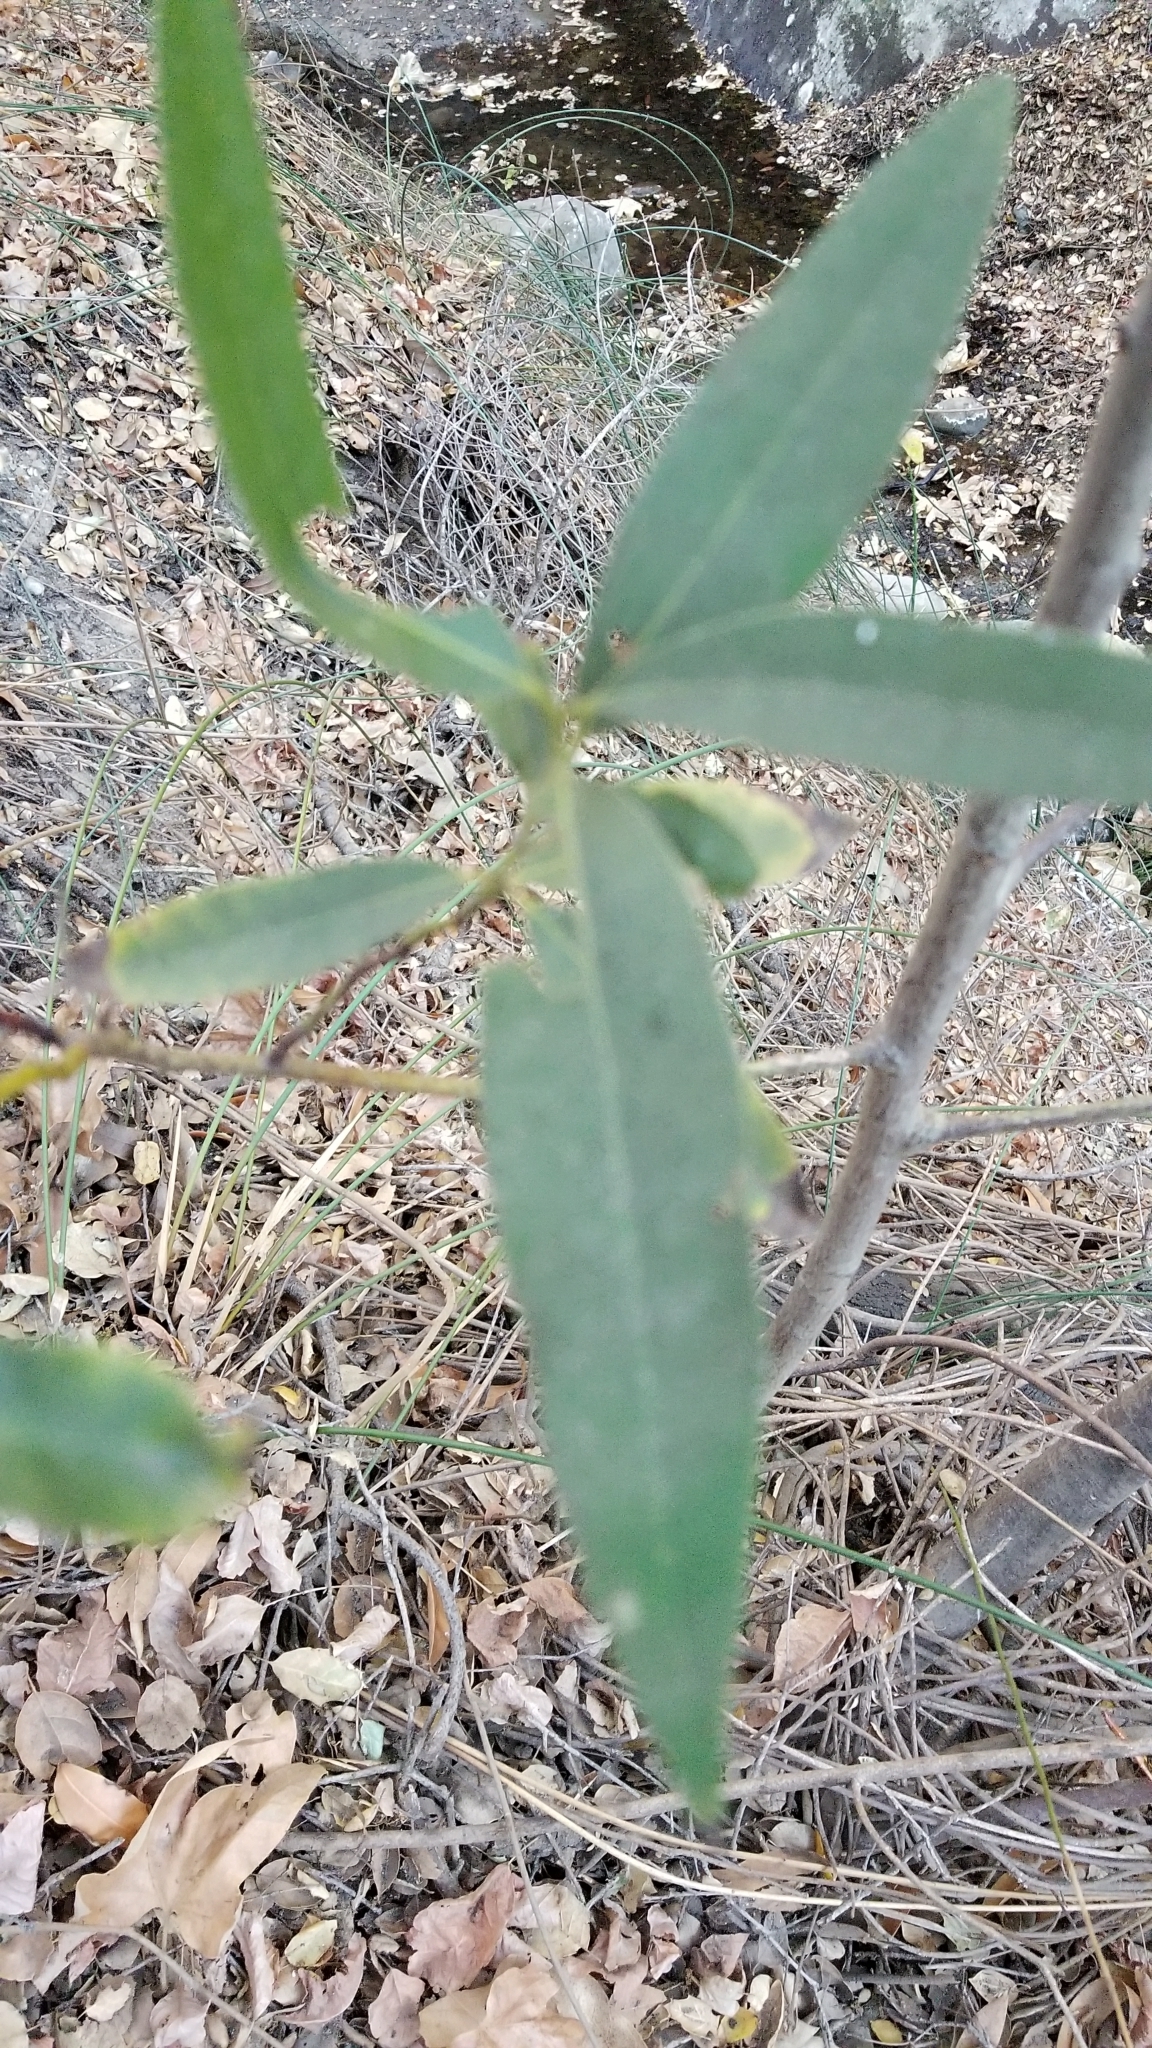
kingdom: Plantae
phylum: Tracheophyta
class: Magnoliopsida
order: Laurales
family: Lauraceae
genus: Umbellularia
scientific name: Umbellularia californica
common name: California bay
